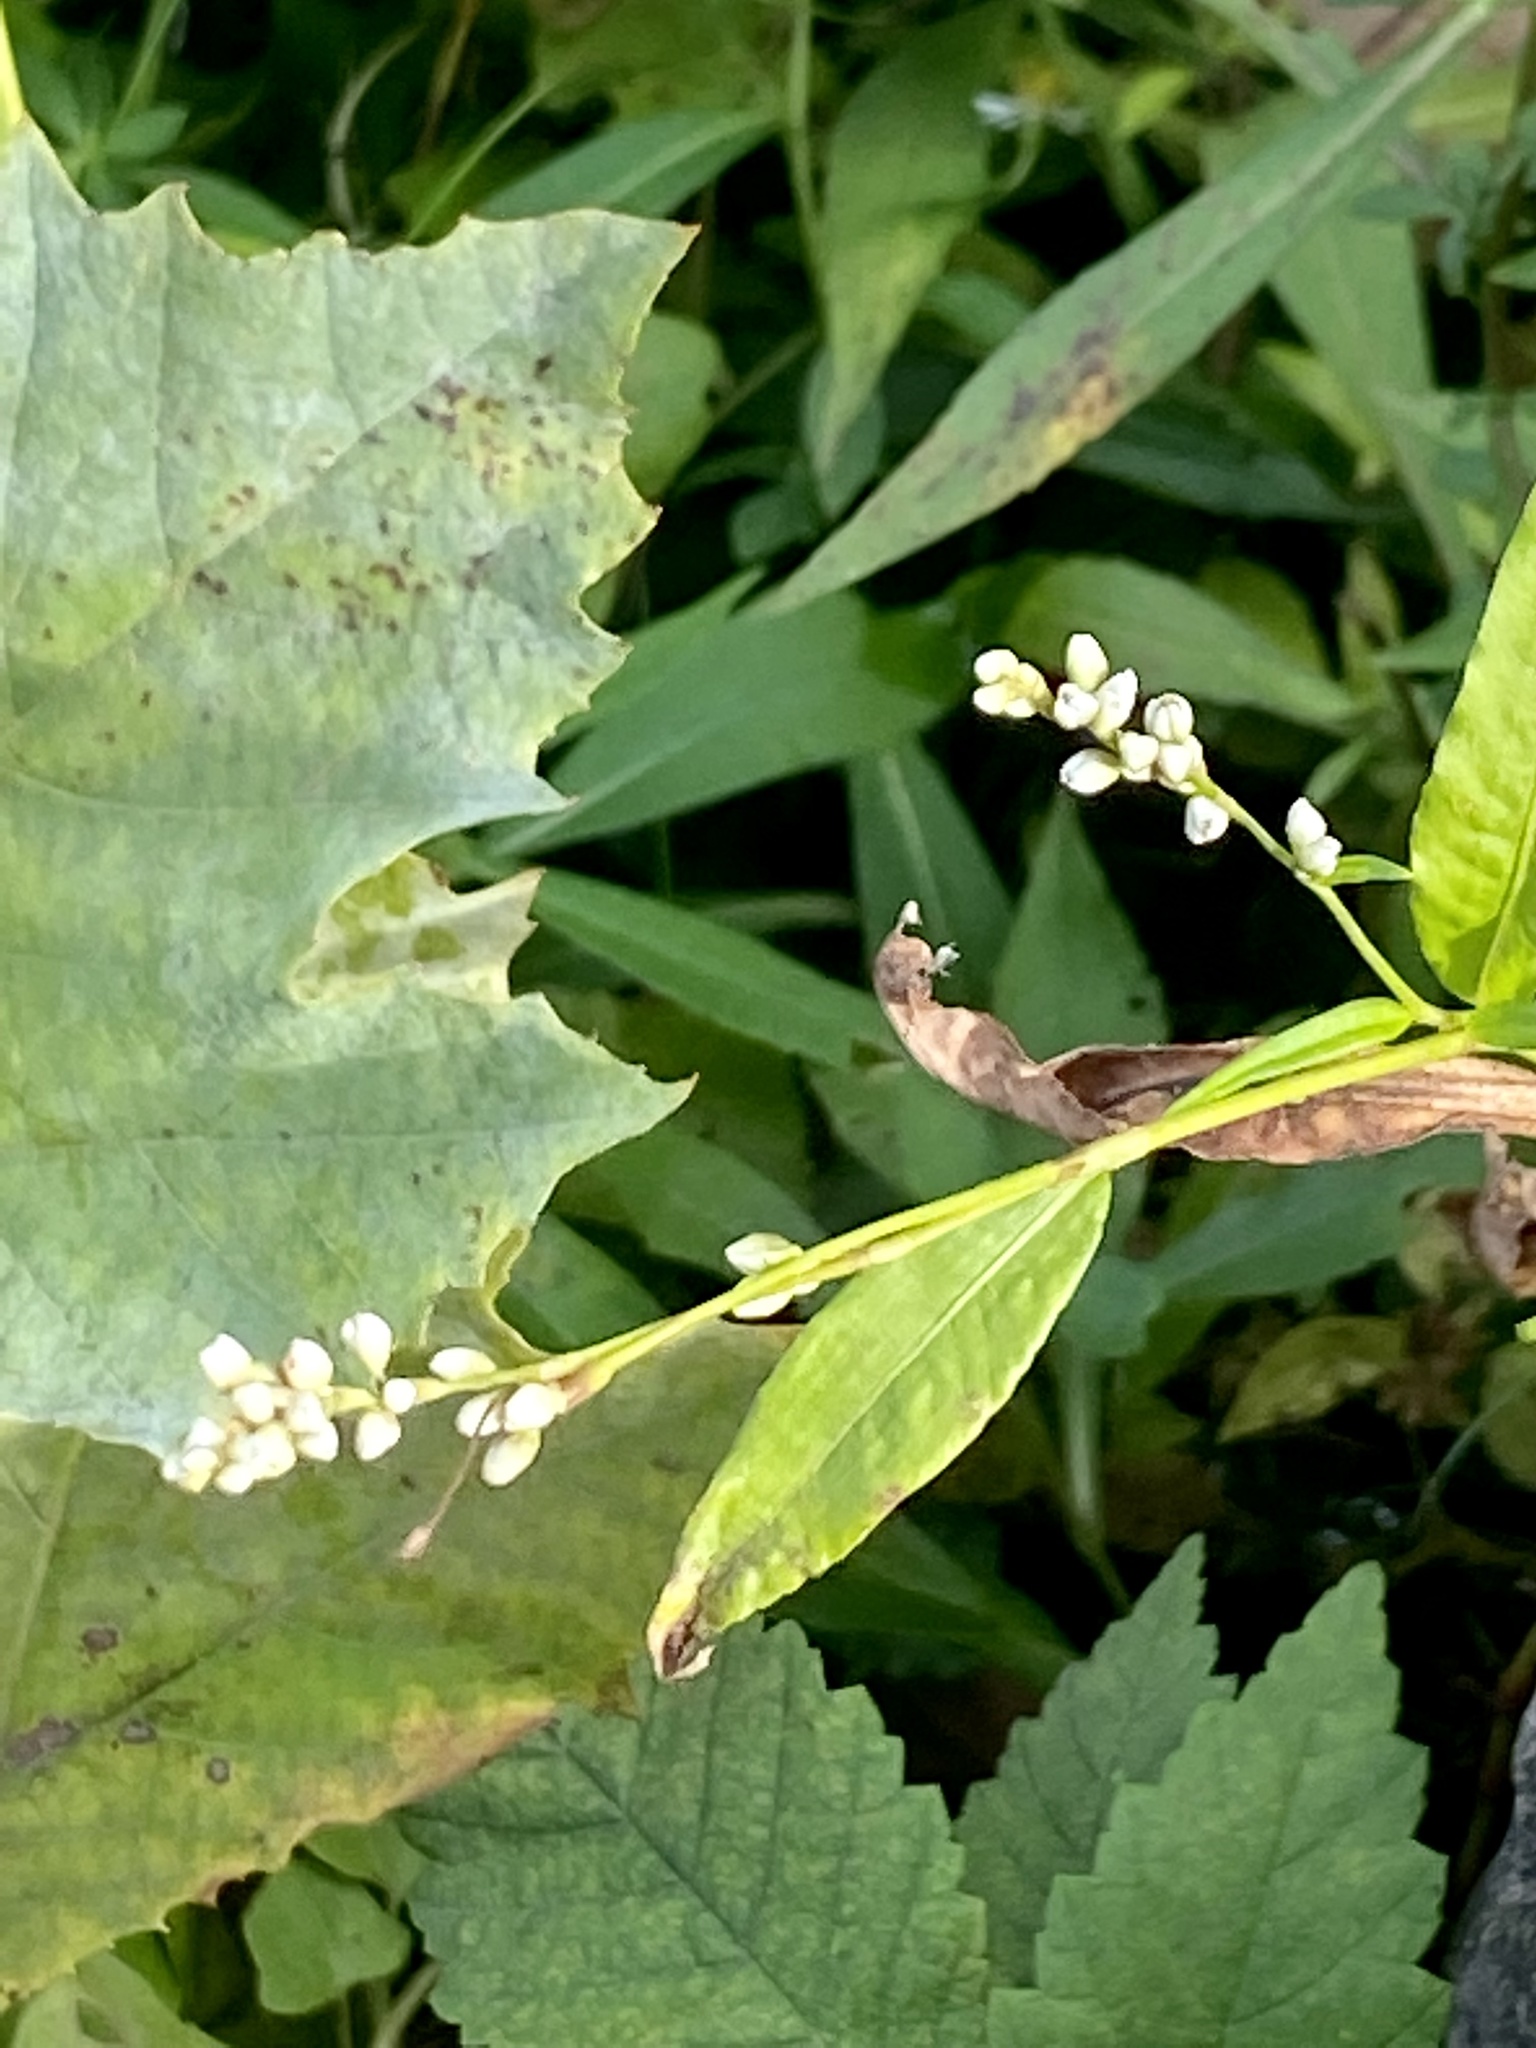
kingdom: Plantae
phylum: Tracheophyta
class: Magnoliopsida
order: Caryophyllales
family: Polygonaceae
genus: Persicaria
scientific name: Persicaria punctata
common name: Dotted smartweed
